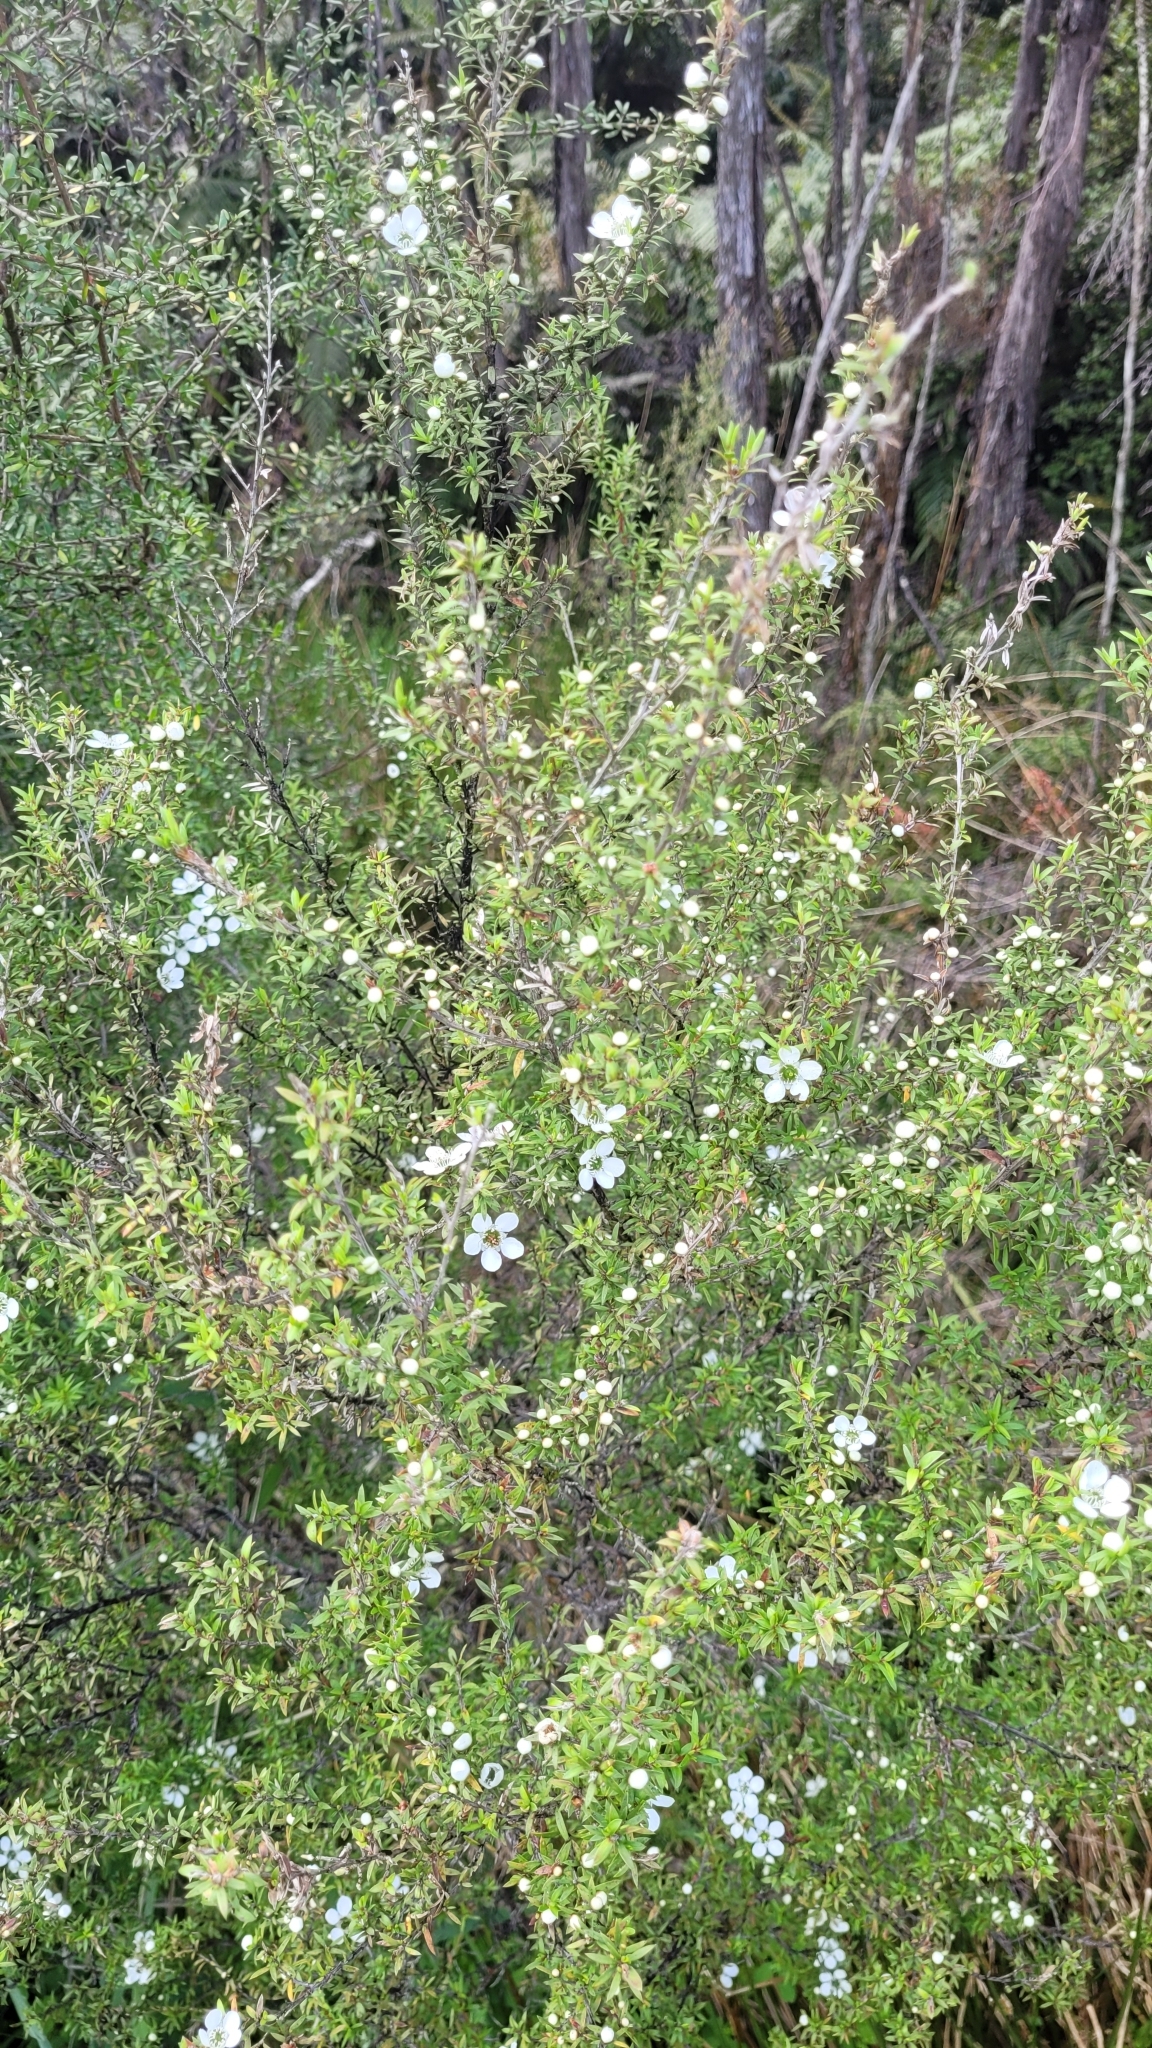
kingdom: Plantae
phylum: Tracheophyta
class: Magnoliopsida
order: Myrtales
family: Myrtaceae
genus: Leptospermum
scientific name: Leptospermum scoparium
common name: Broom tea-tree
